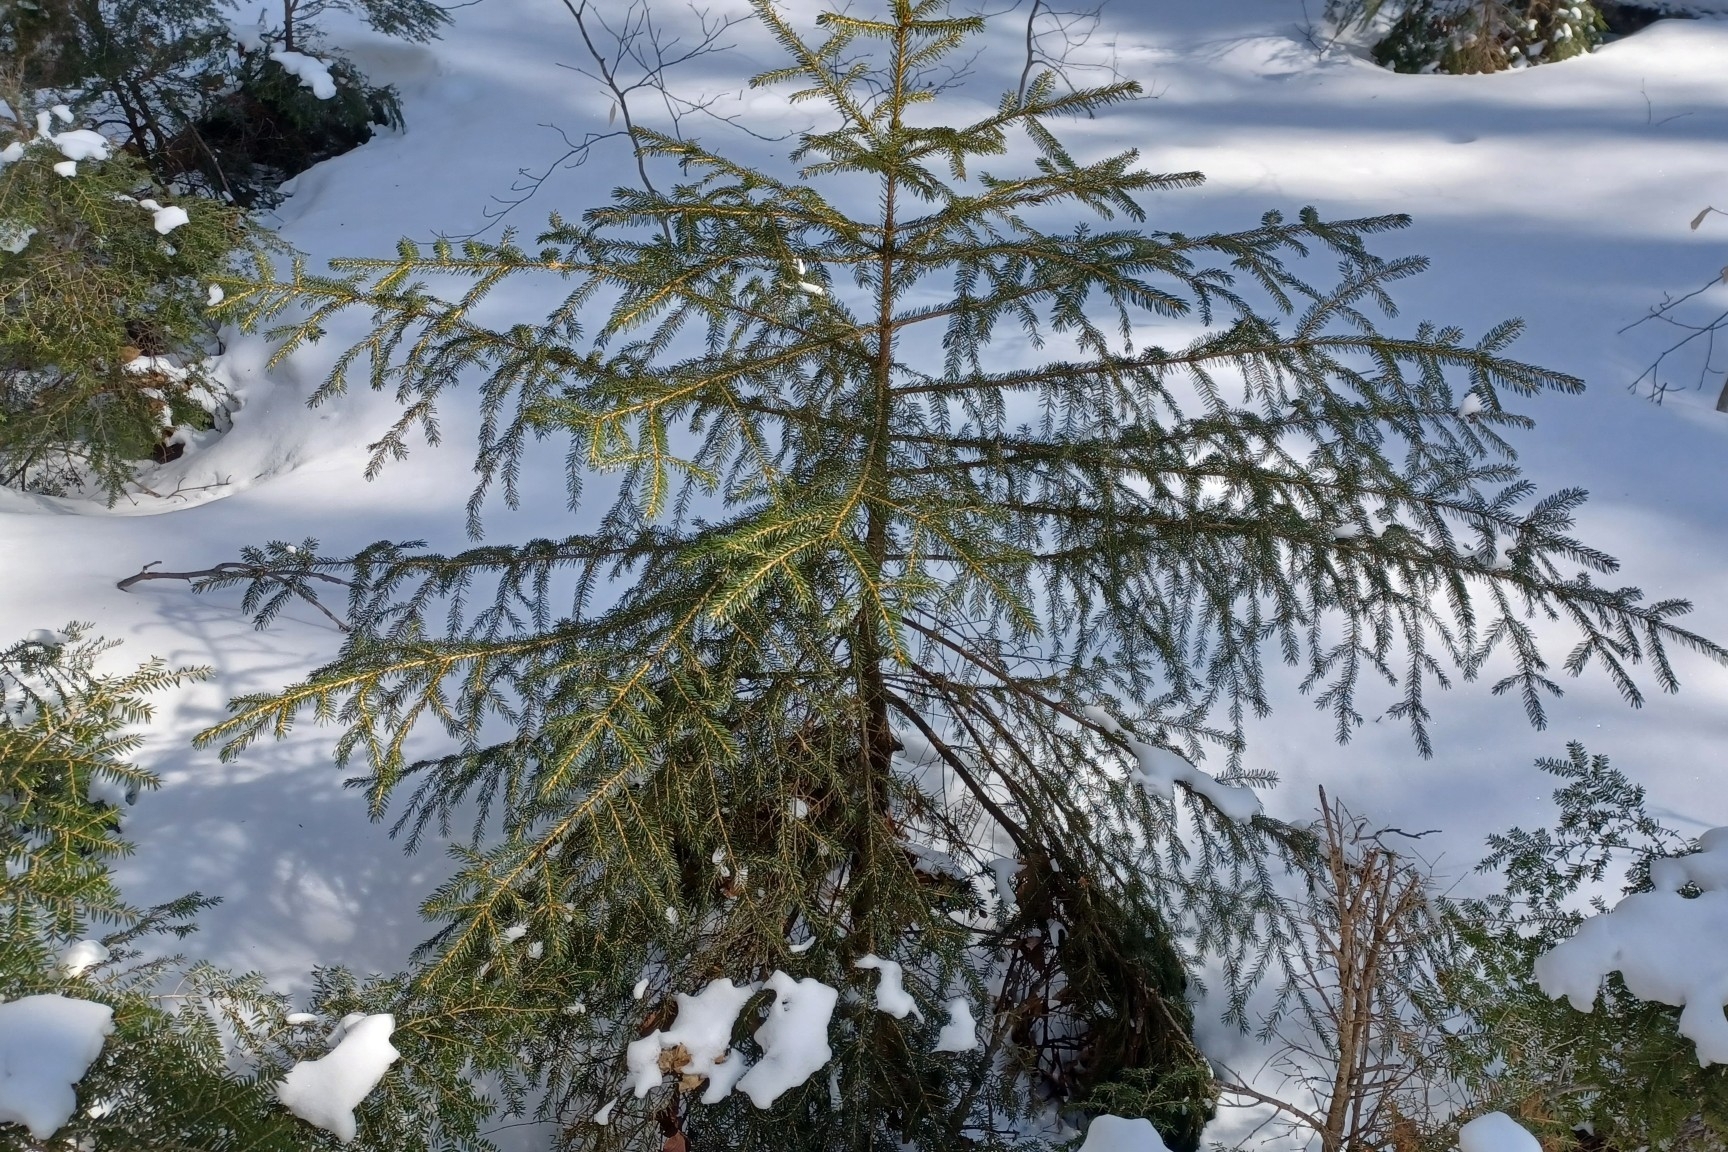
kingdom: Plantae
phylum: Tracheophyta
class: Pinopsida
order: Pinales
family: Pinaceae
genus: Picea
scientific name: Picea rubens
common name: Red spruce
